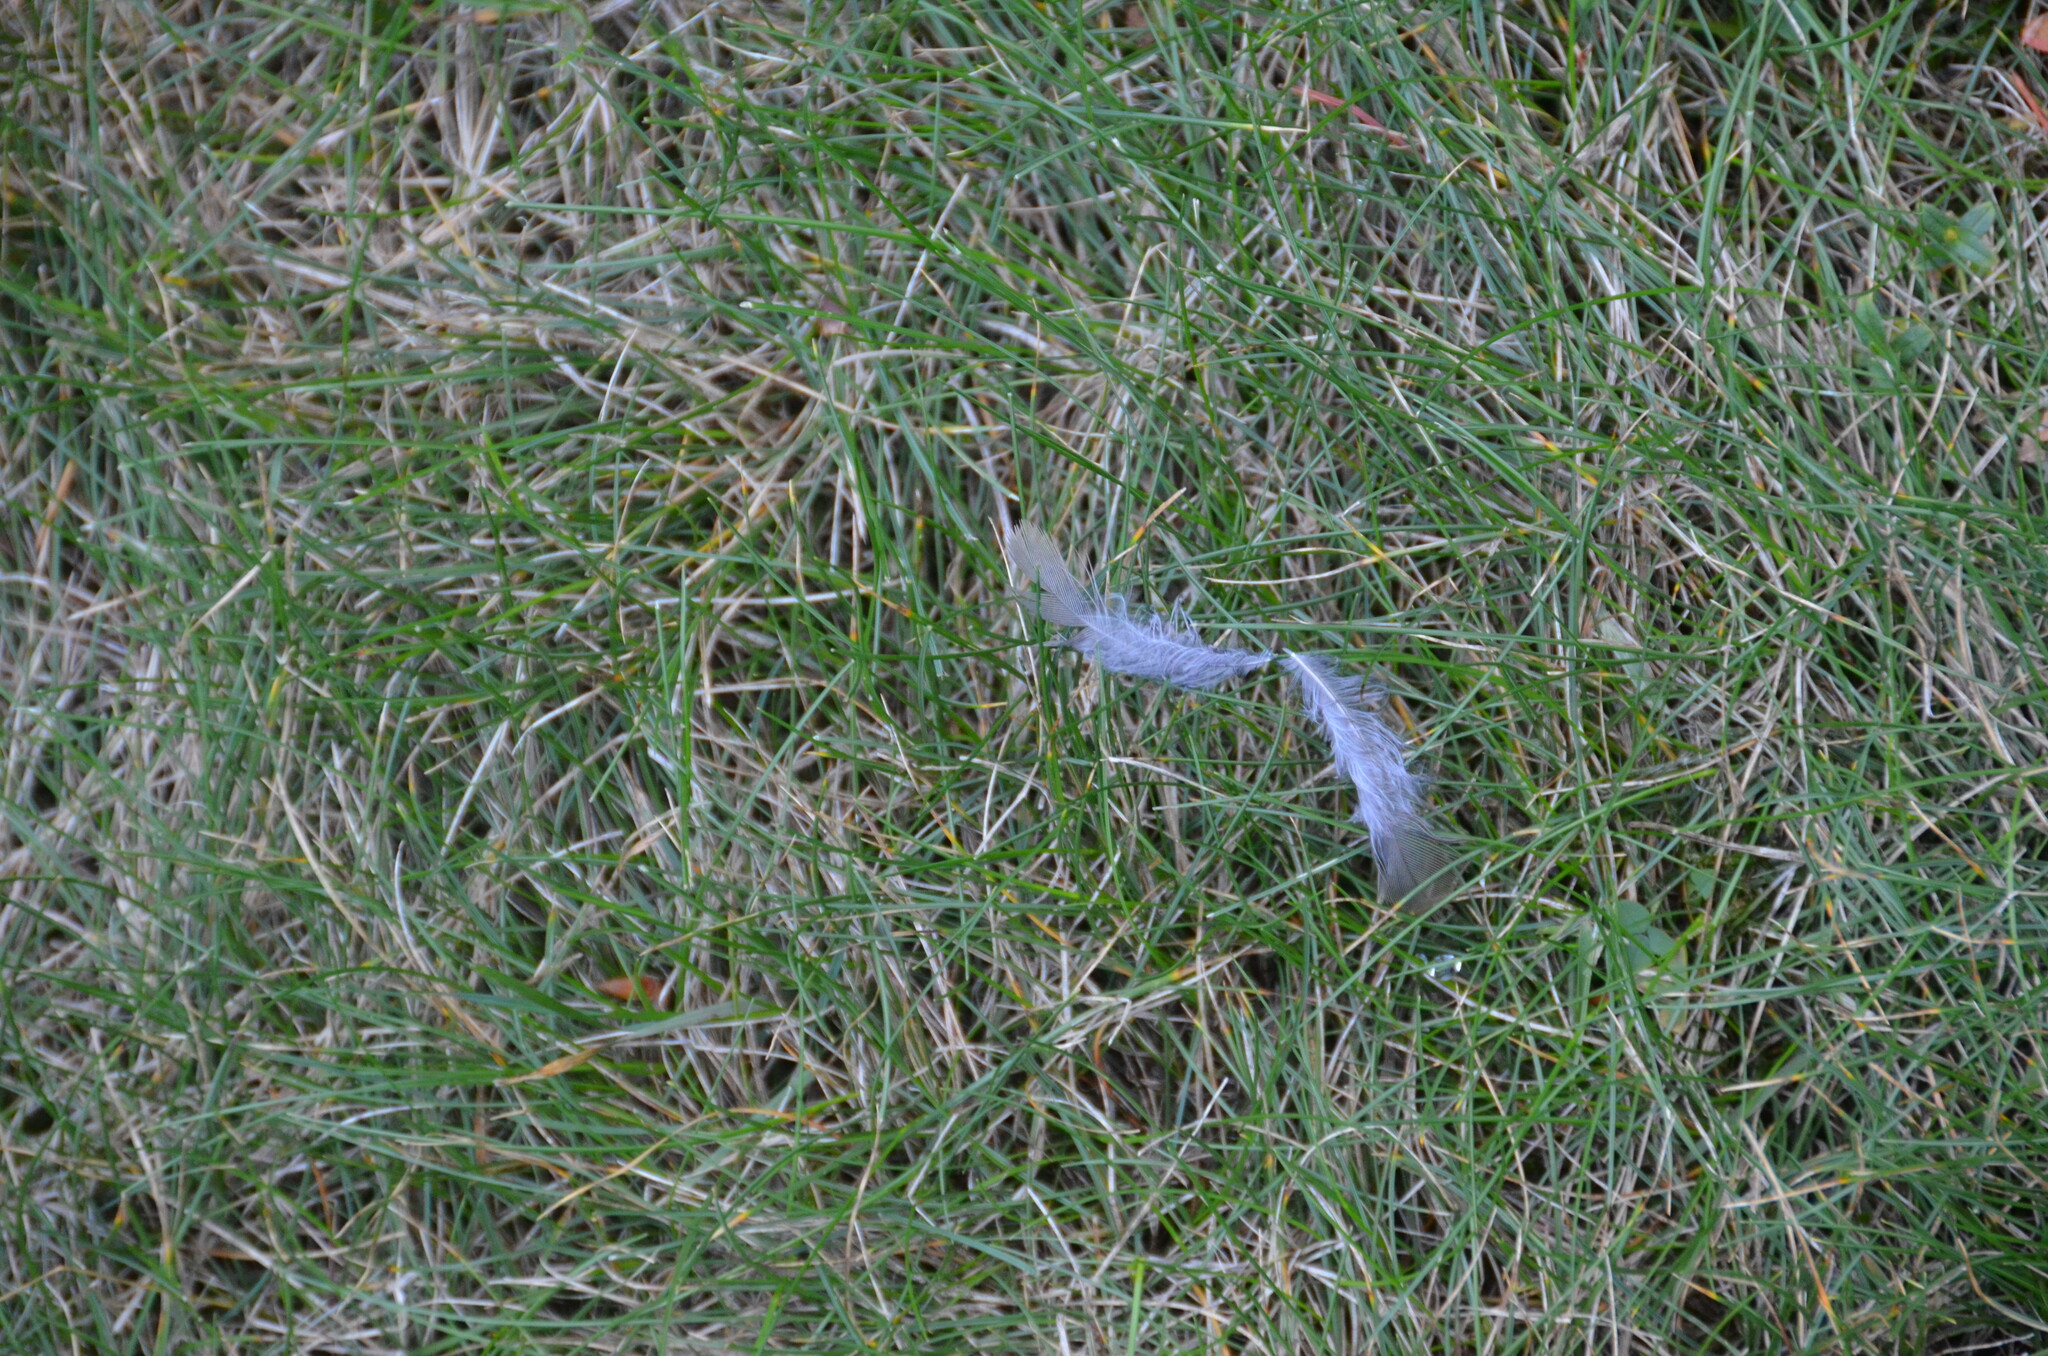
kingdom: Animalia
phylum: Chordata
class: Aves
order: Passeriformes
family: Turdidae
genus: Turdus
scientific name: Turdus migratorius
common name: American robin
